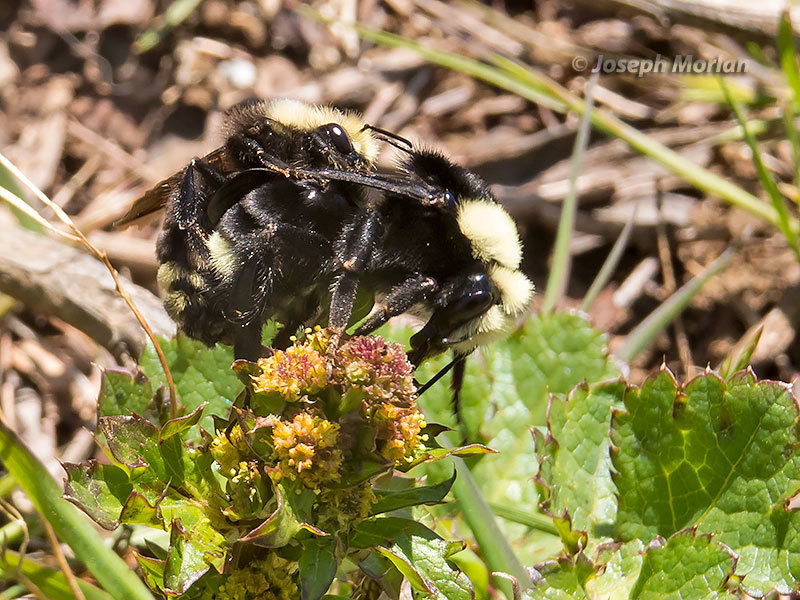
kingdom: Animalia
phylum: Arthropoda
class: Insecta
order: Hymenoptera
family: Apidae
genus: Pyrobombus
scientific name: Pyrobombus
